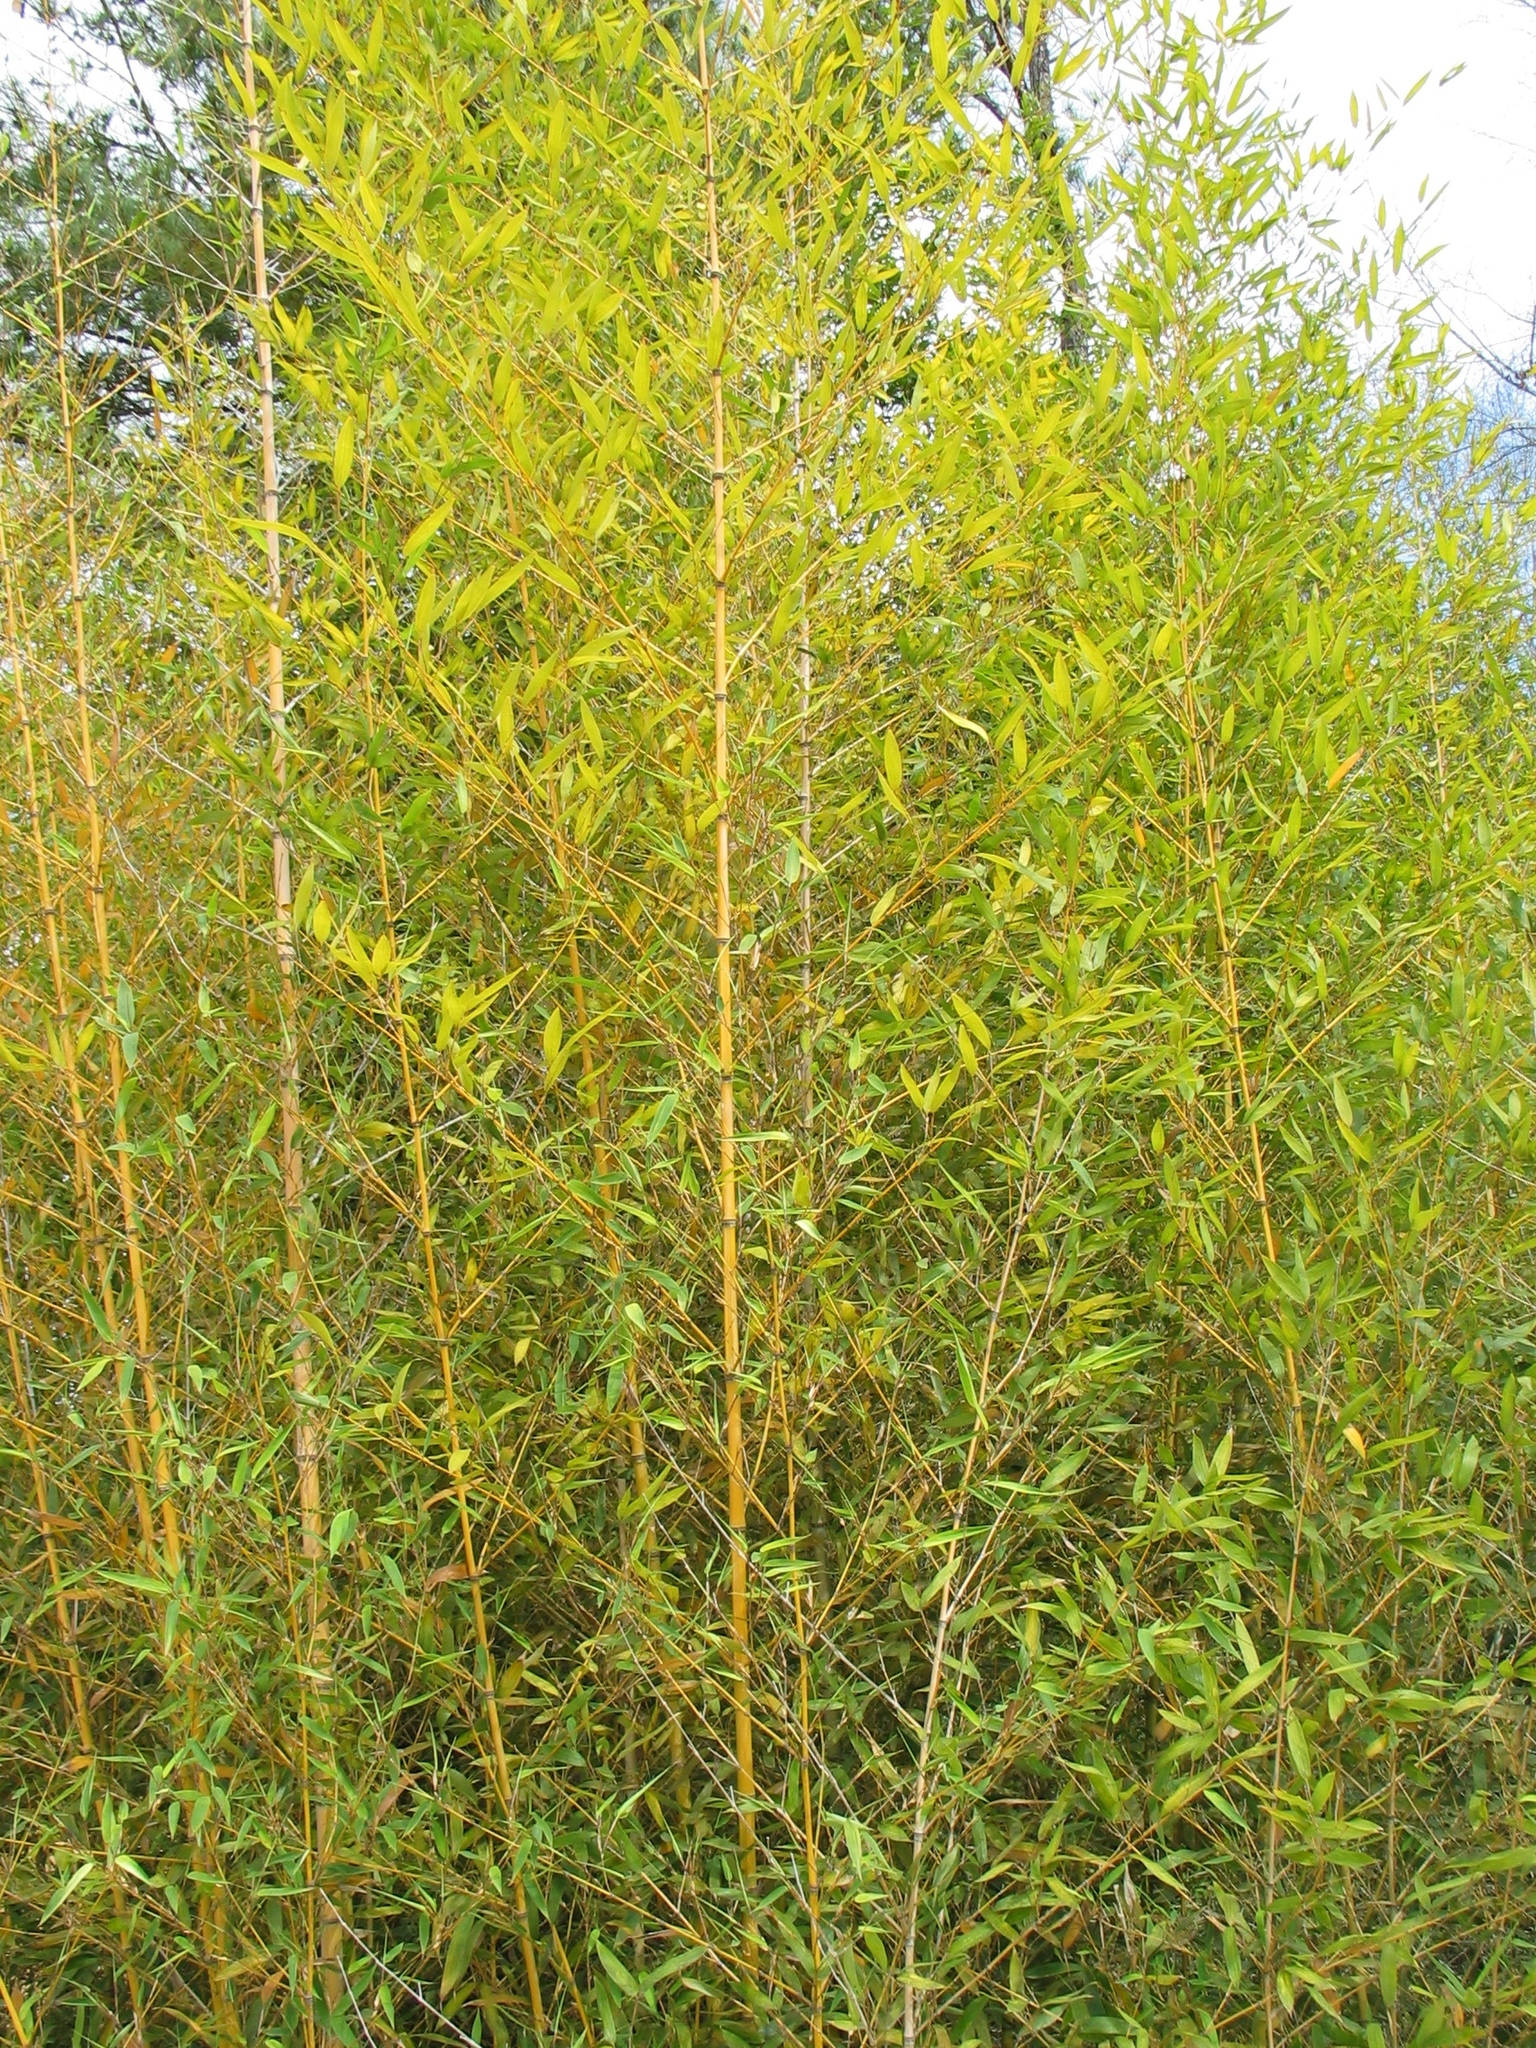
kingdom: Plantae
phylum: Tracheophyta
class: Liliopsida
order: Poales
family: Poaceae
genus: Phyllostachys
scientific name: Phyllostachys aurea
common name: Golden bamboo
